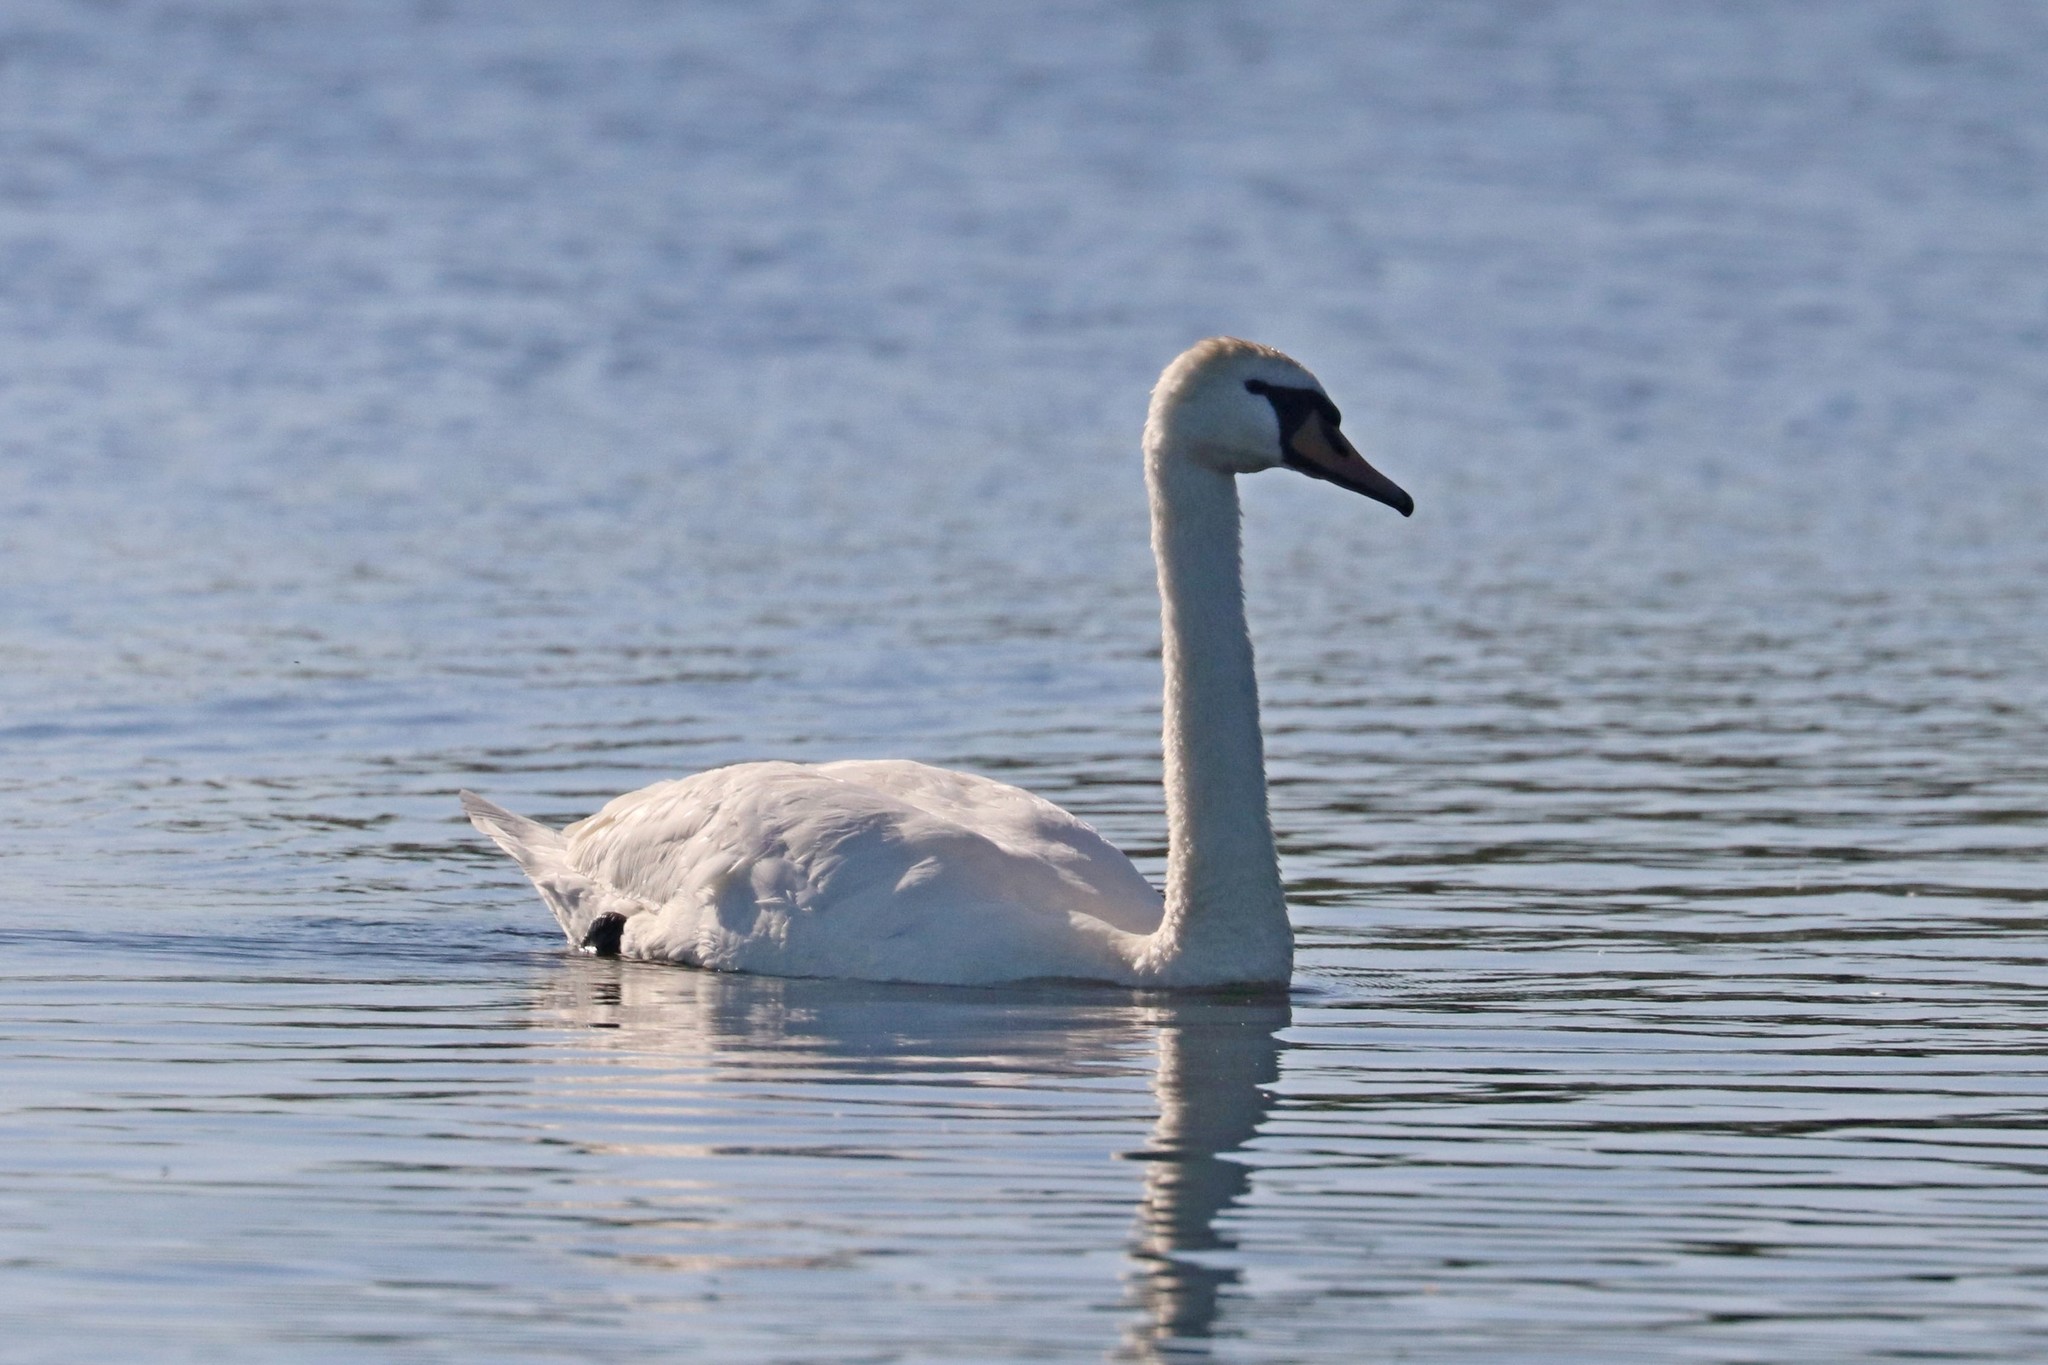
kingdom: Animalia
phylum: Chordata
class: Aves
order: Anseriformes
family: Anatidae
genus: Cygnus
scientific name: Cygnus olor
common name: Mute swan
